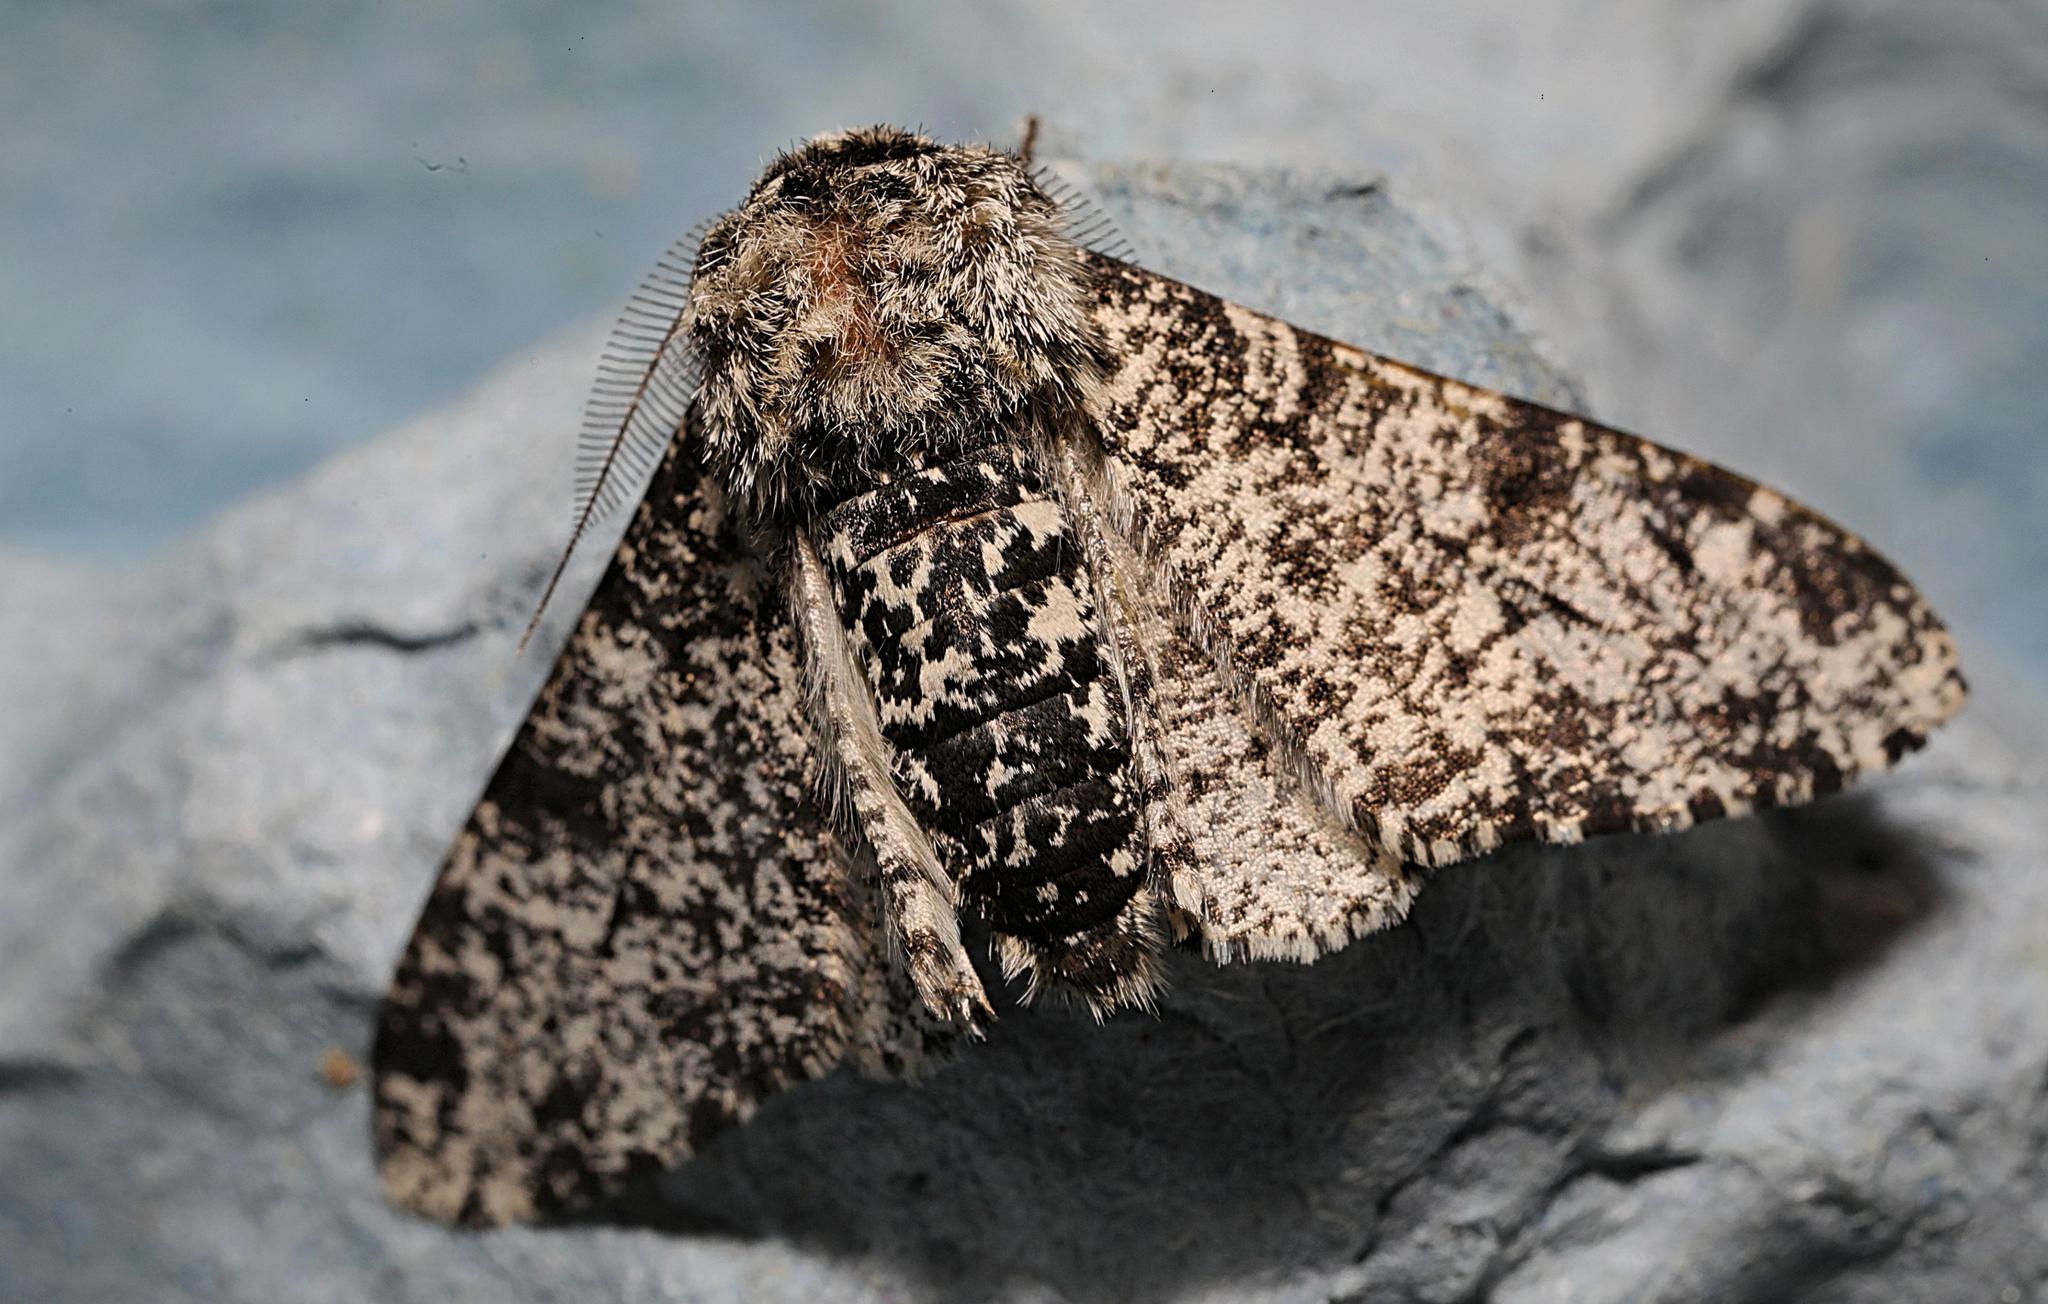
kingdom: Animalia
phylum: Arthropoda
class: Insecta
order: Lepidoptera
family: Geometridae
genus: Biston
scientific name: Biston betularia
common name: Peppered moth
